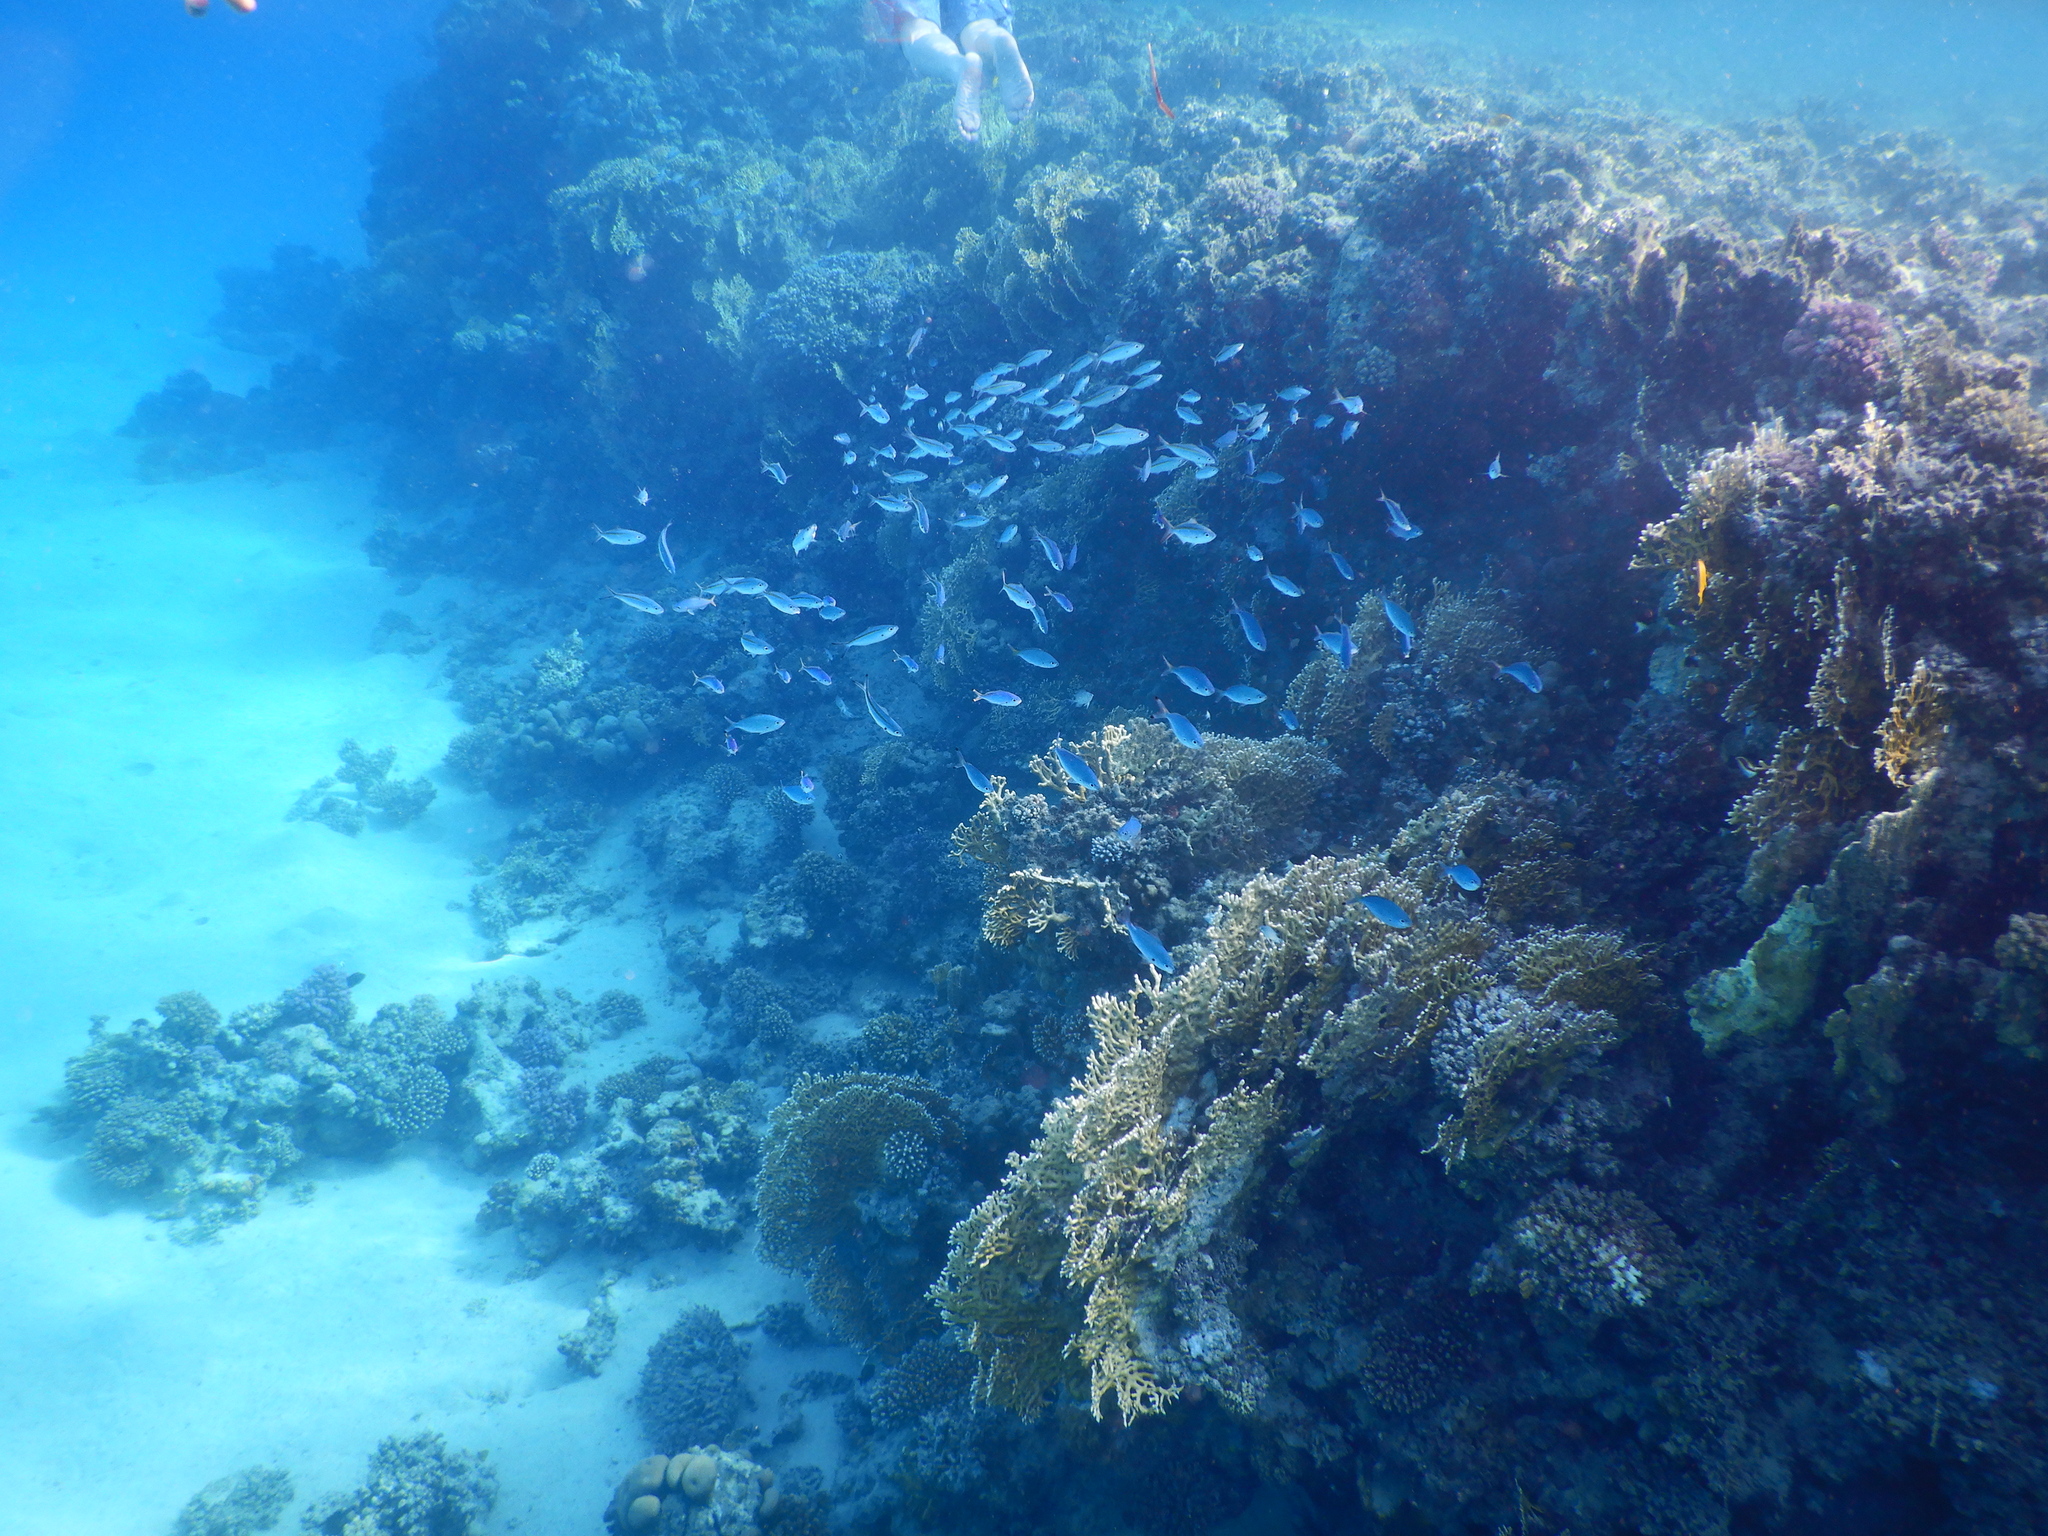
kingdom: Animalia
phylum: Chordata
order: Perciformes
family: Caesionidae
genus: Caesio
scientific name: Caesio striata
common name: Striated fusilier
